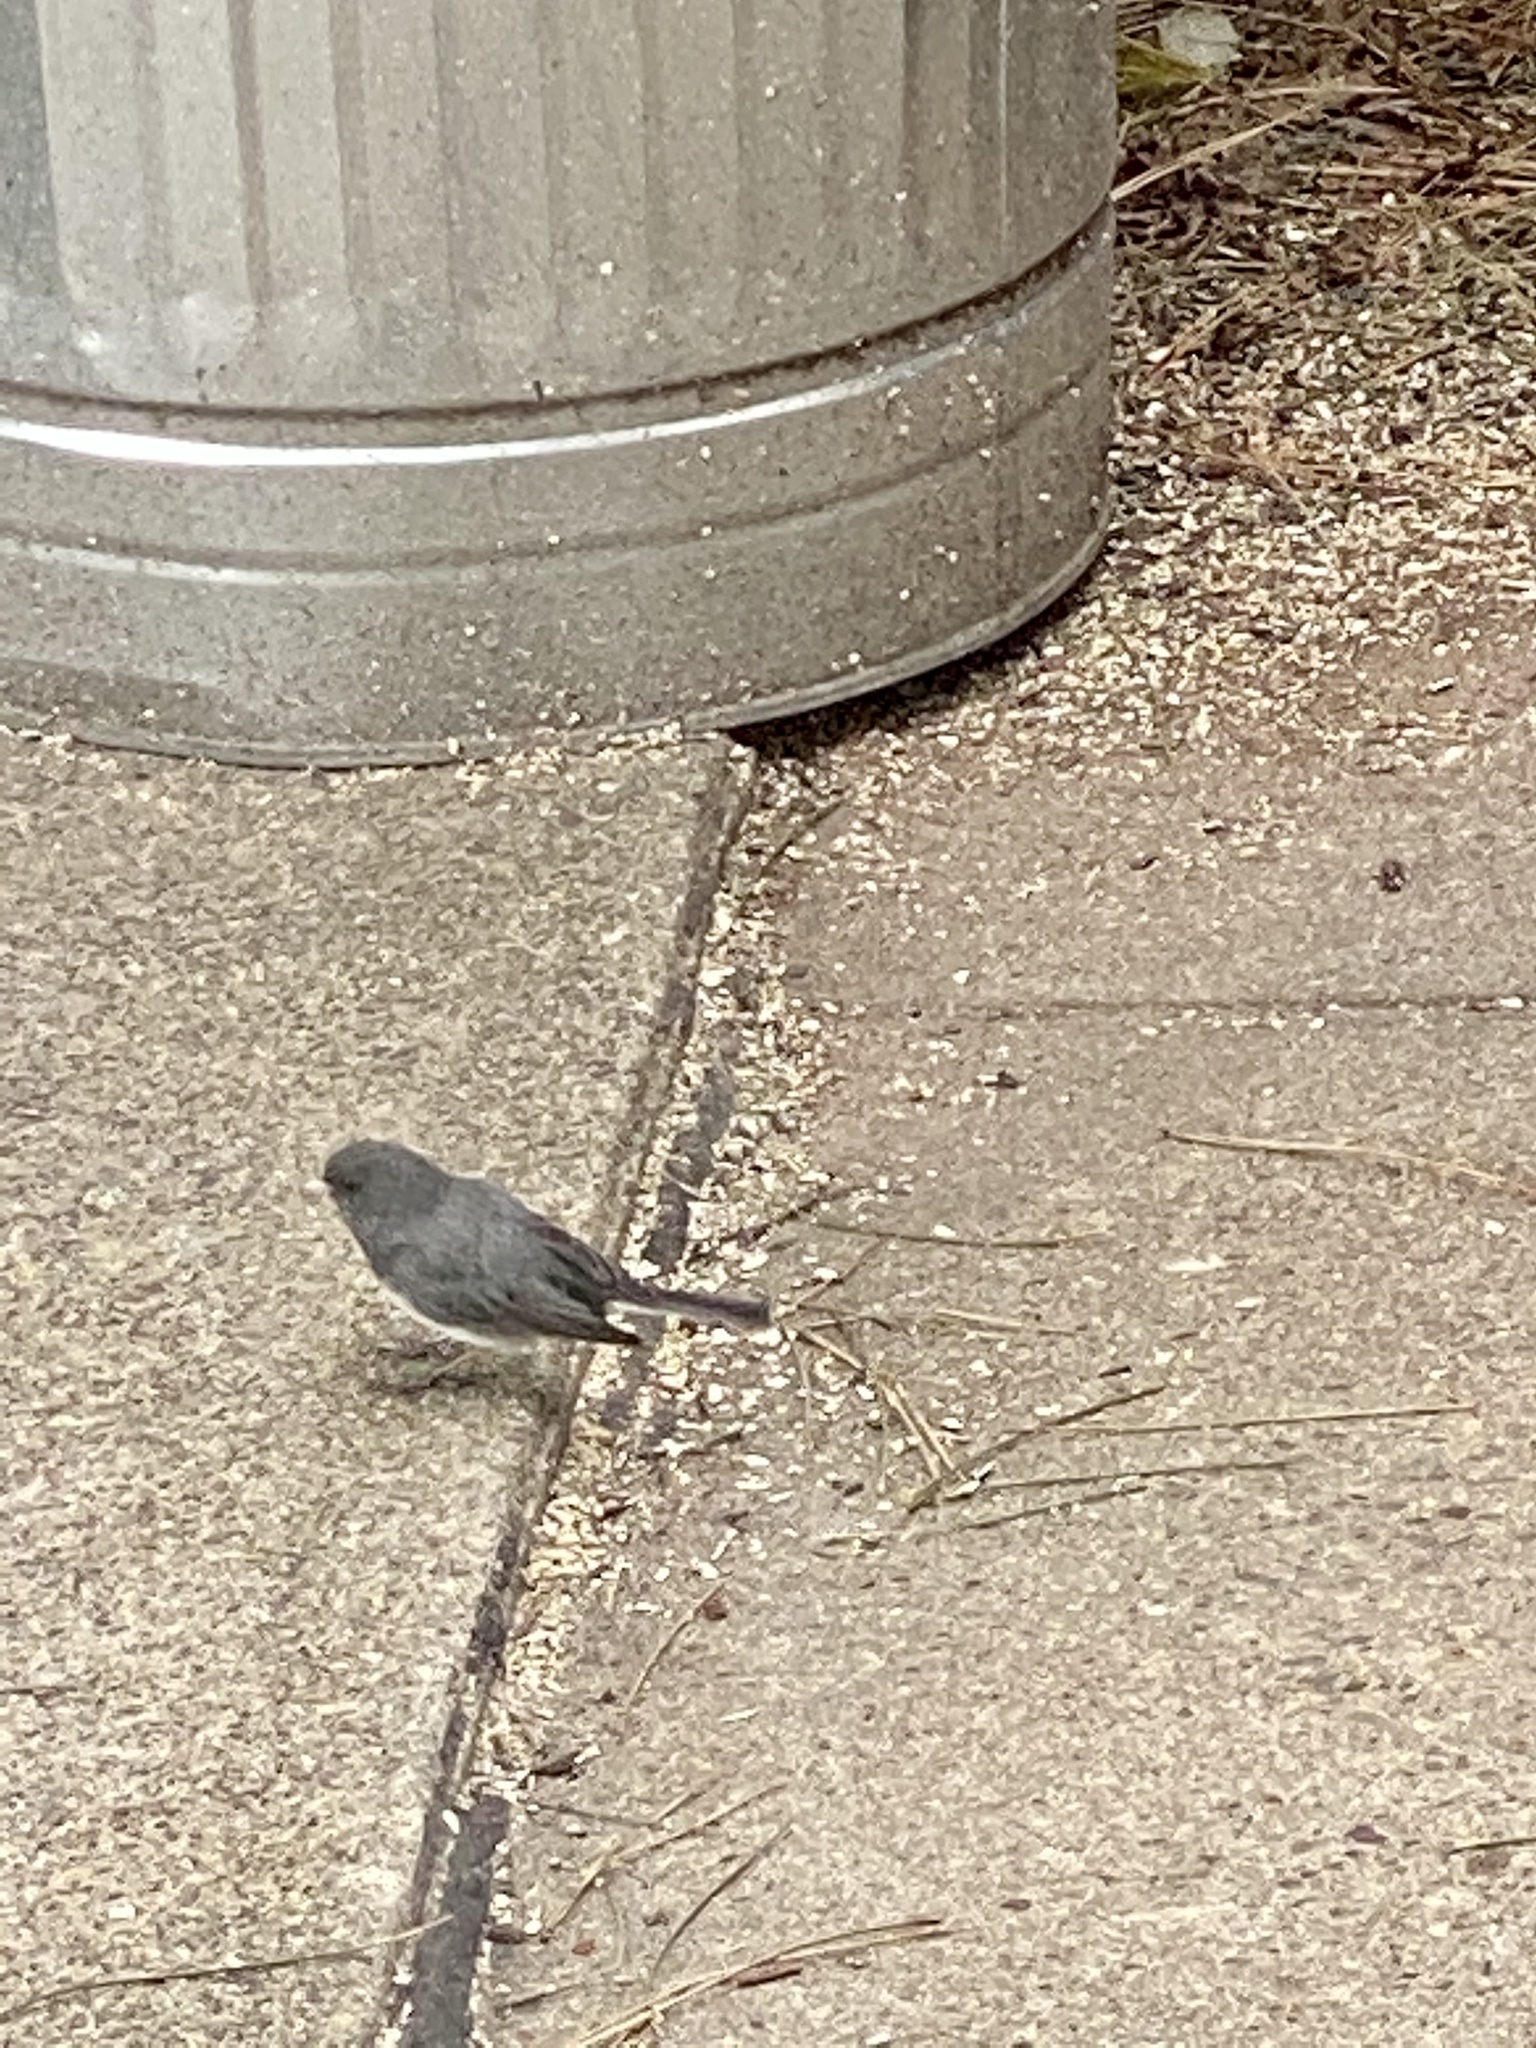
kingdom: Animalia
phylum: Chordata
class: Aves
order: Passeriformes
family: Passerellidae
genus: Junco
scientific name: Junco hyemalis
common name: Dark-eyed junco
